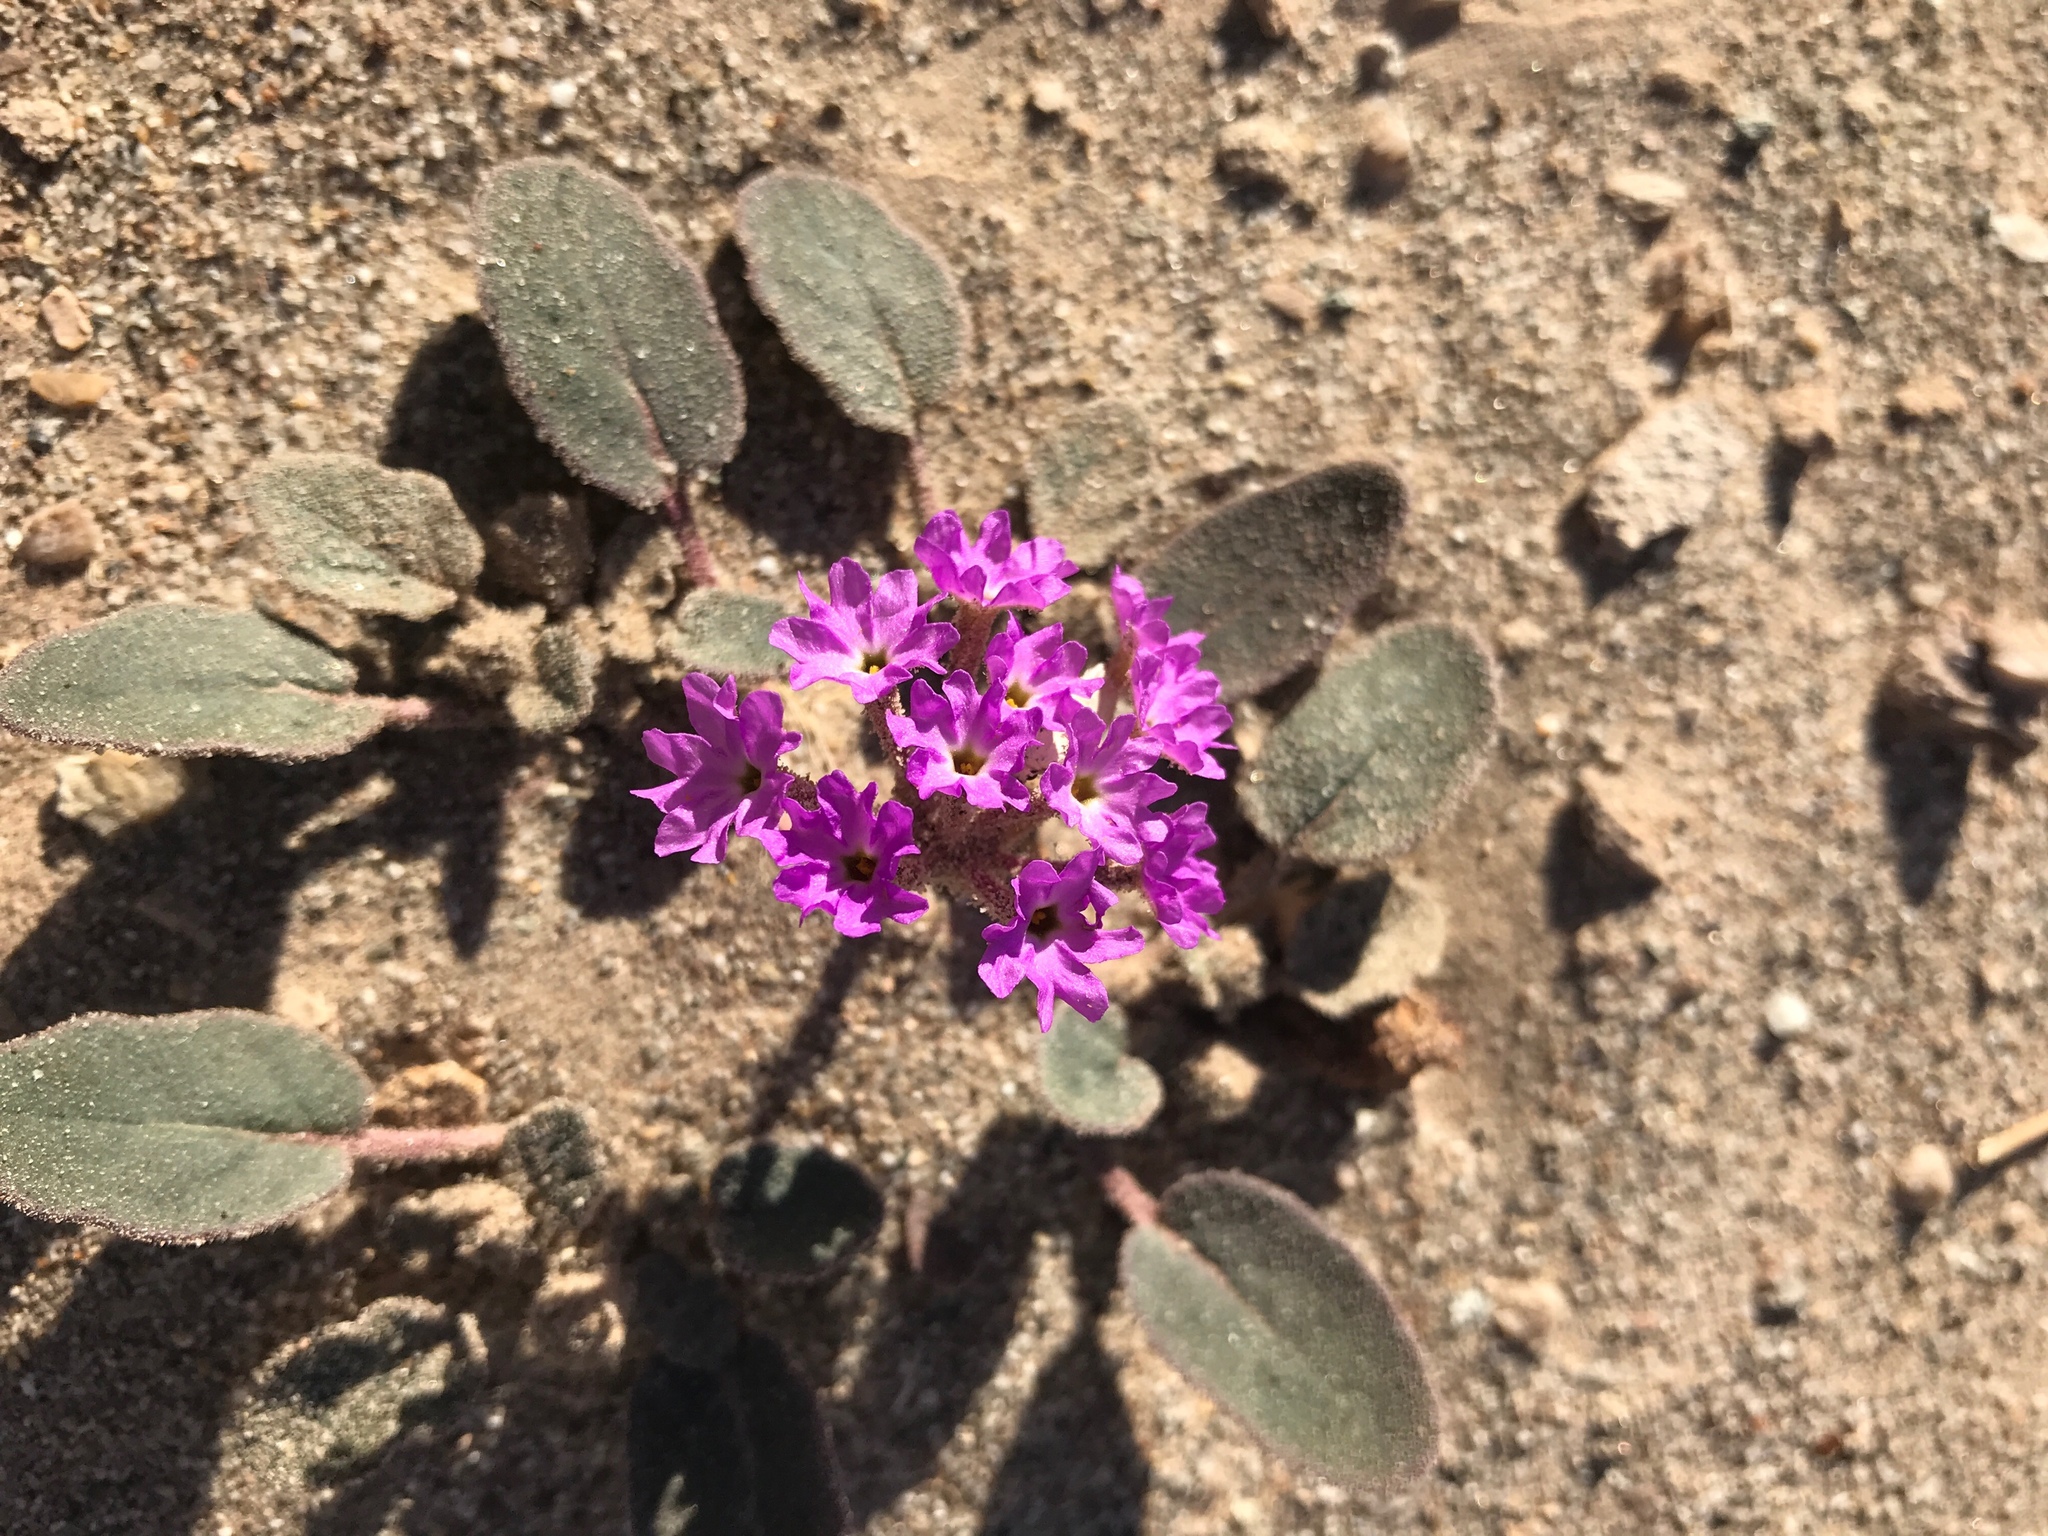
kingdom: Plantae
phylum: Tracheophyta
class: Magnoliopsida
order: Caryophyllales
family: Nyctaginaceae
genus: Abronia
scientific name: Abronia villosa
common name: Desert sand-verbena
